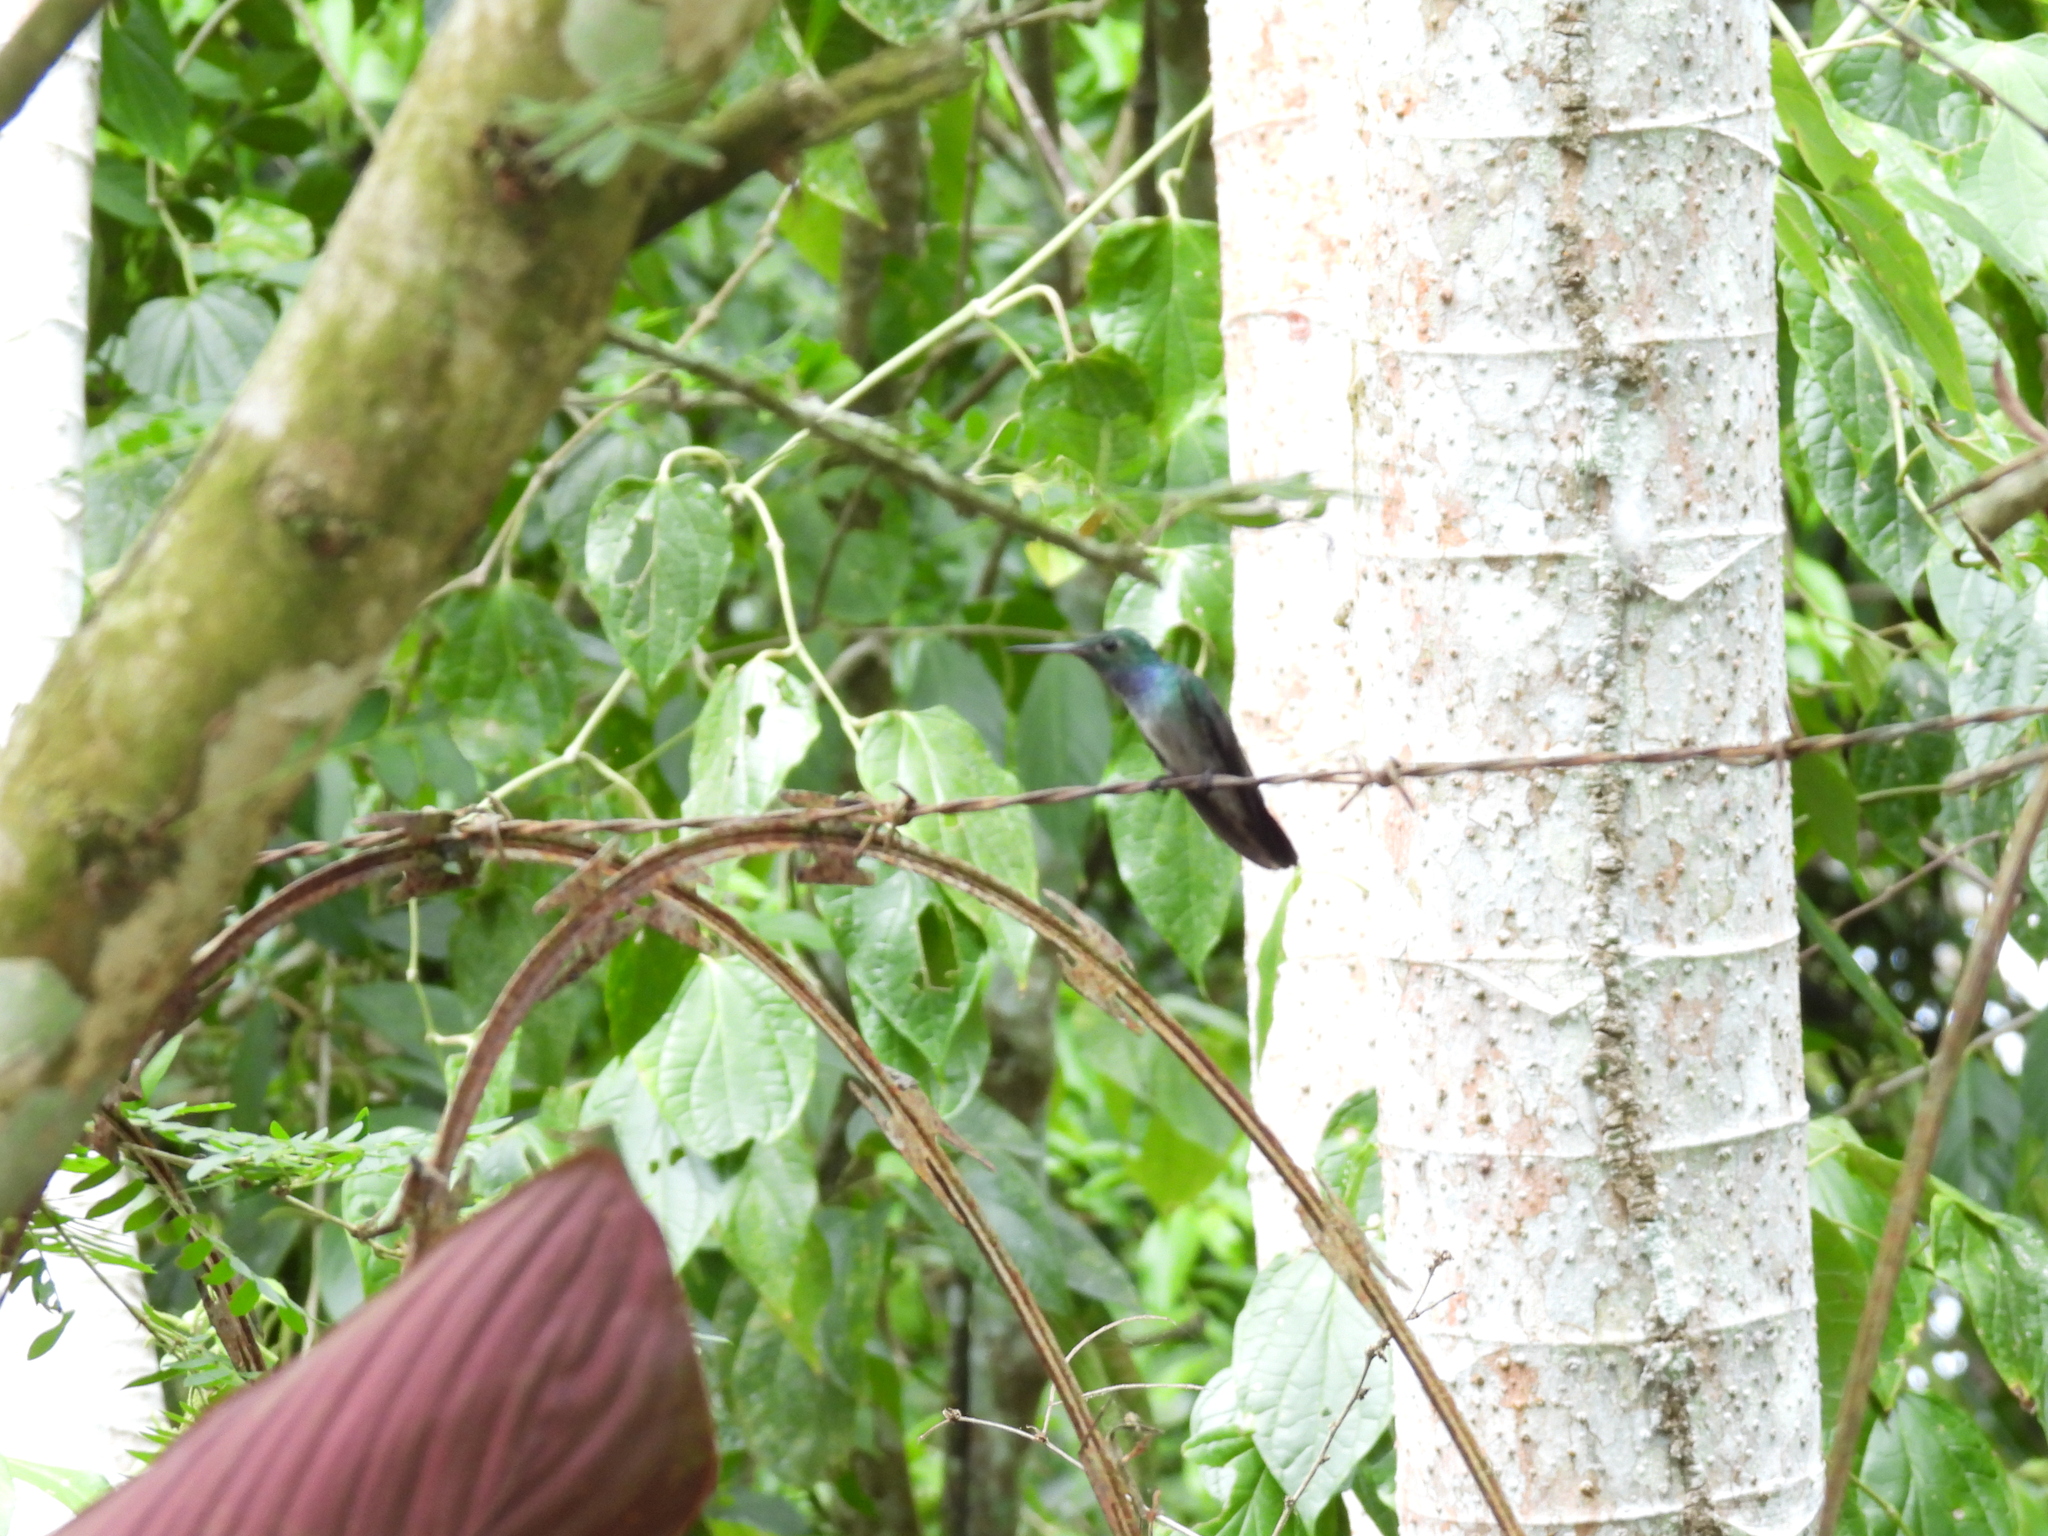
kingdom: Animalia
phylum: Chordata
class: Aves
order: Apodiformes
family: Trochilidae
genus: Polyerata
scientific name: Polyerata amabilis
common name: Blue-chested hummingbird
